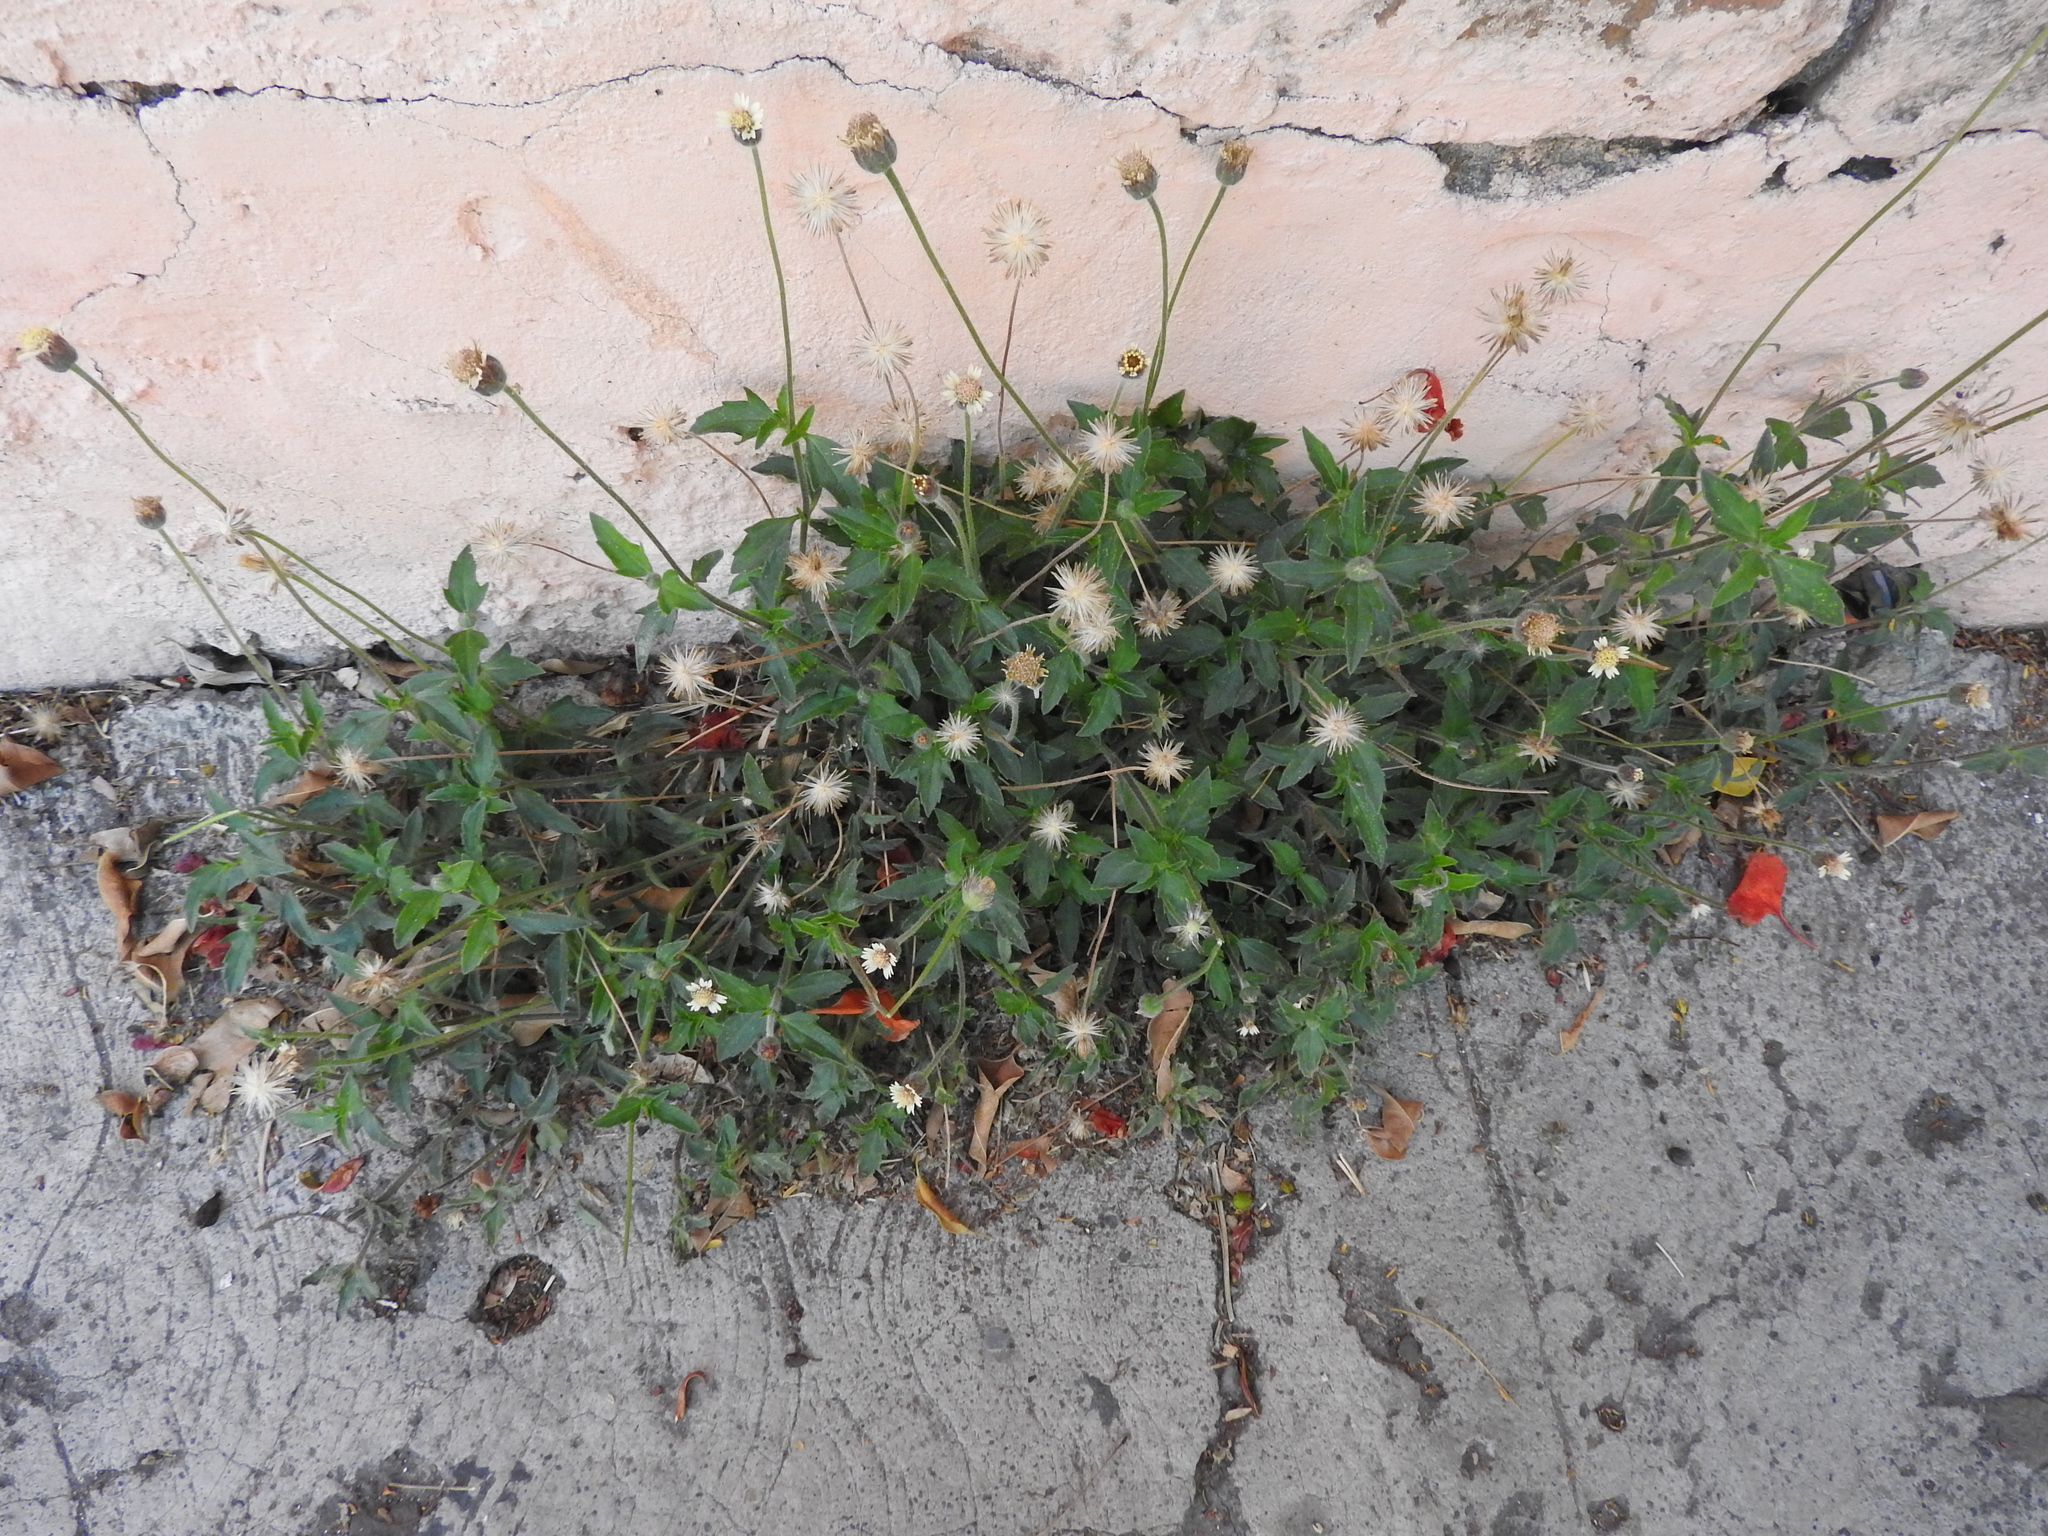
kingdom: Plantae
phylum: Tracheophyta
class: Magnoliopsida
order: Asterales
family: Asteraceae
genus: Tridax
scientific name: Tridax procumbens
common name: Coatbuttons
